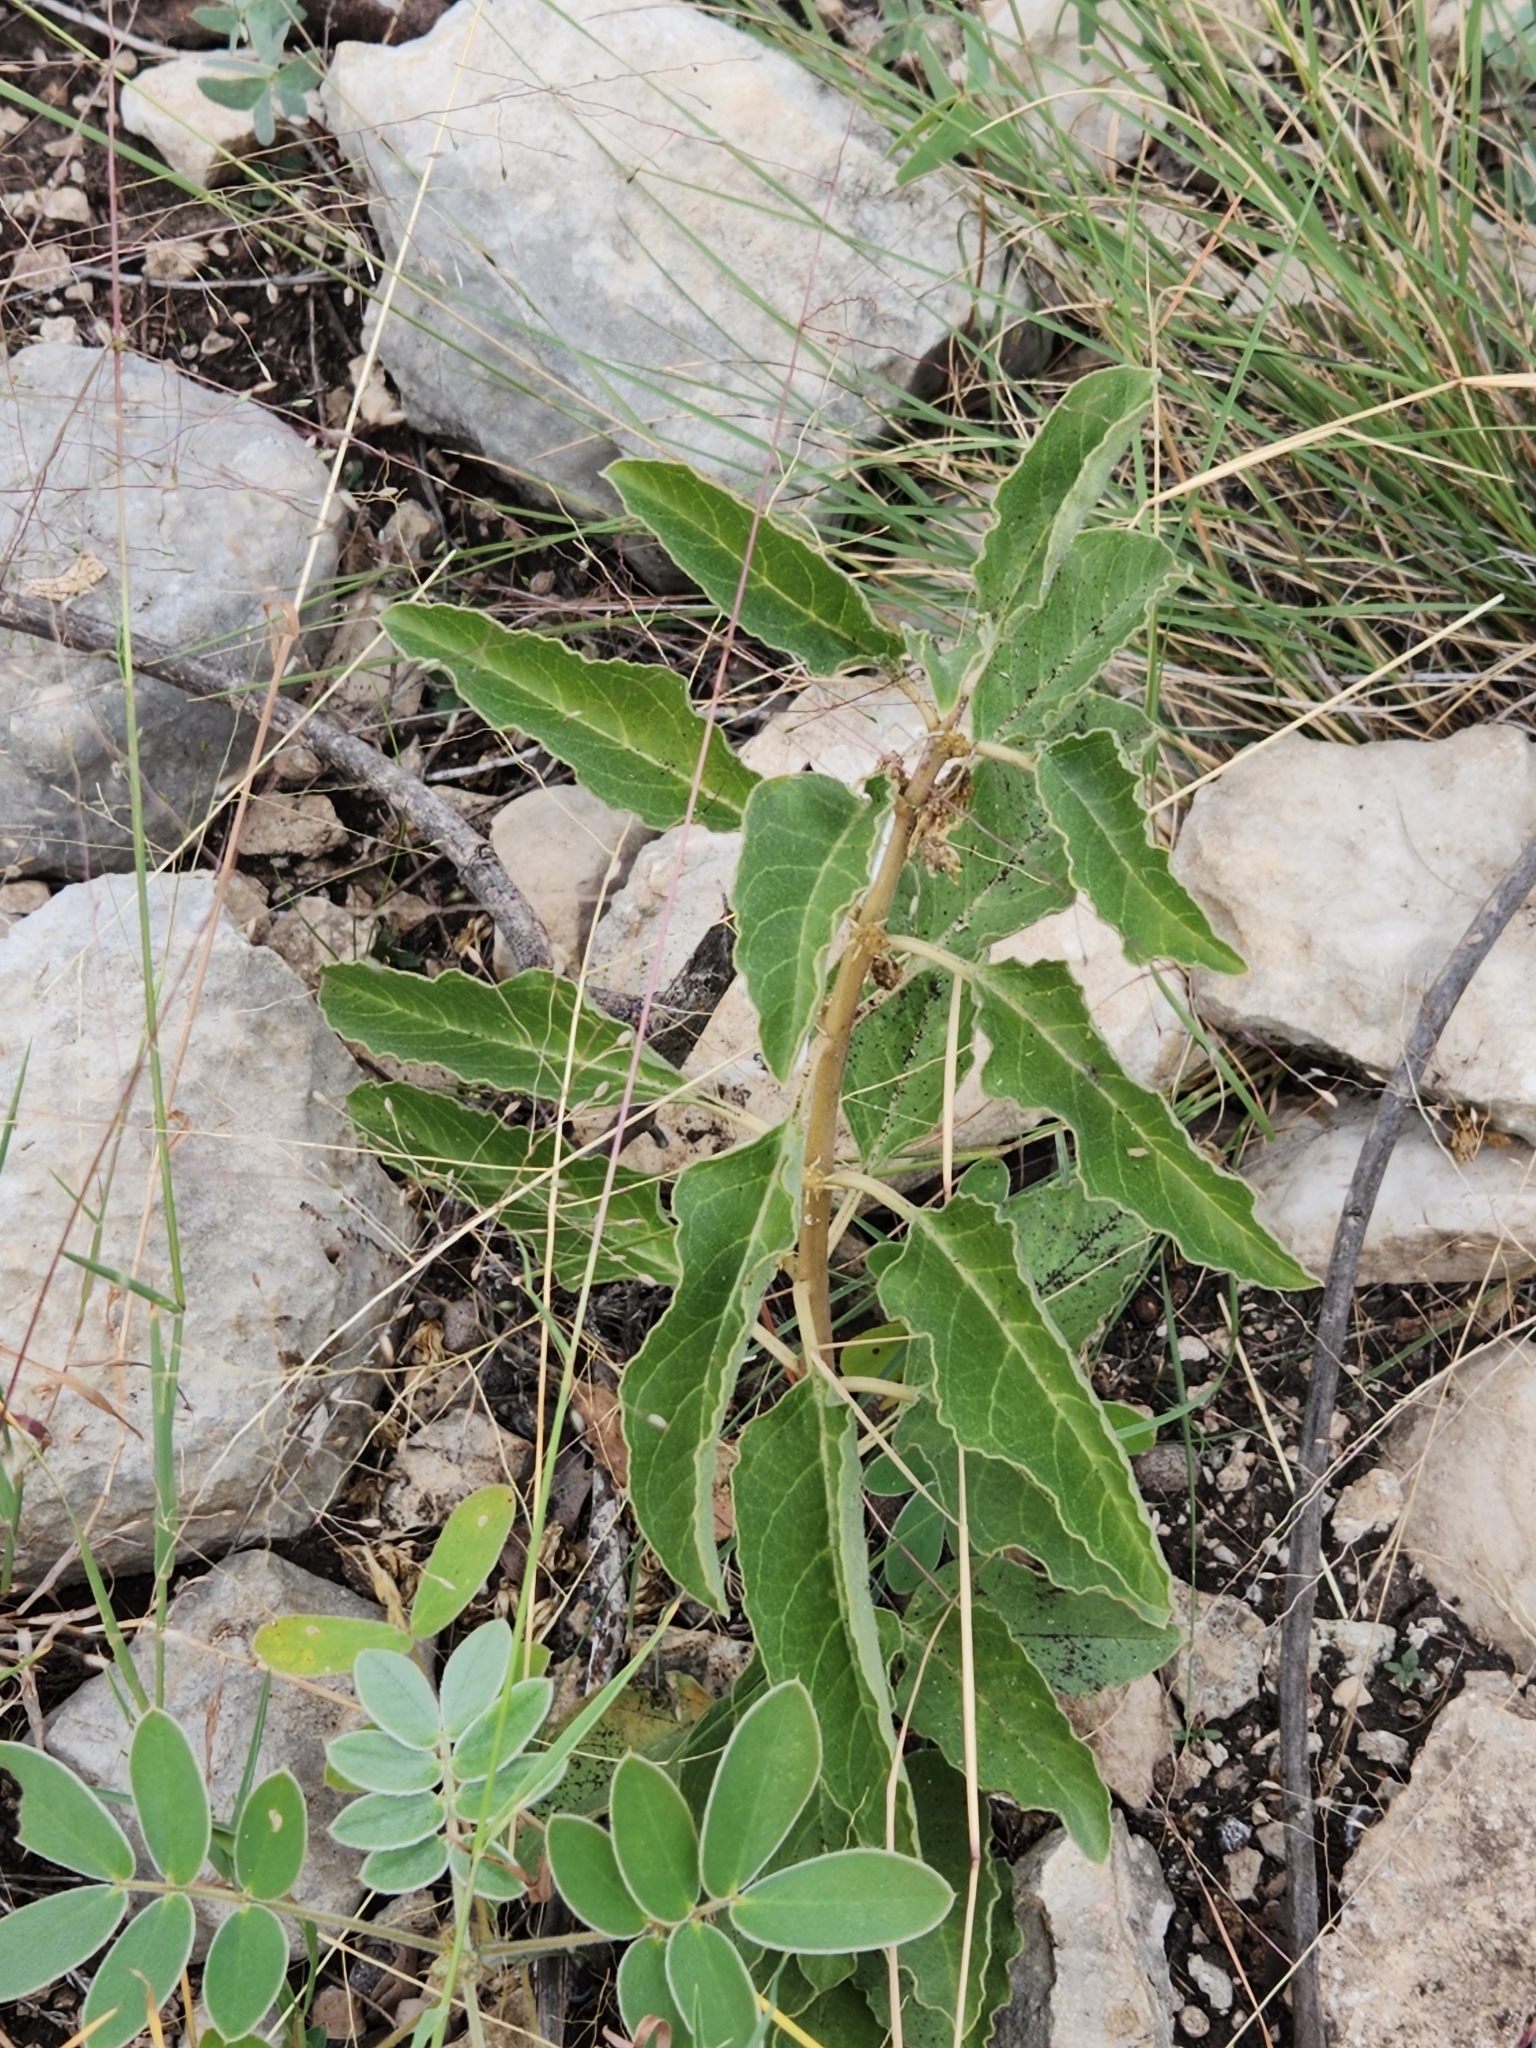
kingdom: Plantae
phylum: Tracheophyta
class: Magnoliopsida
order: Gentianales
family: Apocynaceae
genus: Asclepias
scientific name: Asclepias oenotheroides
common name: Zizotes milkweed
